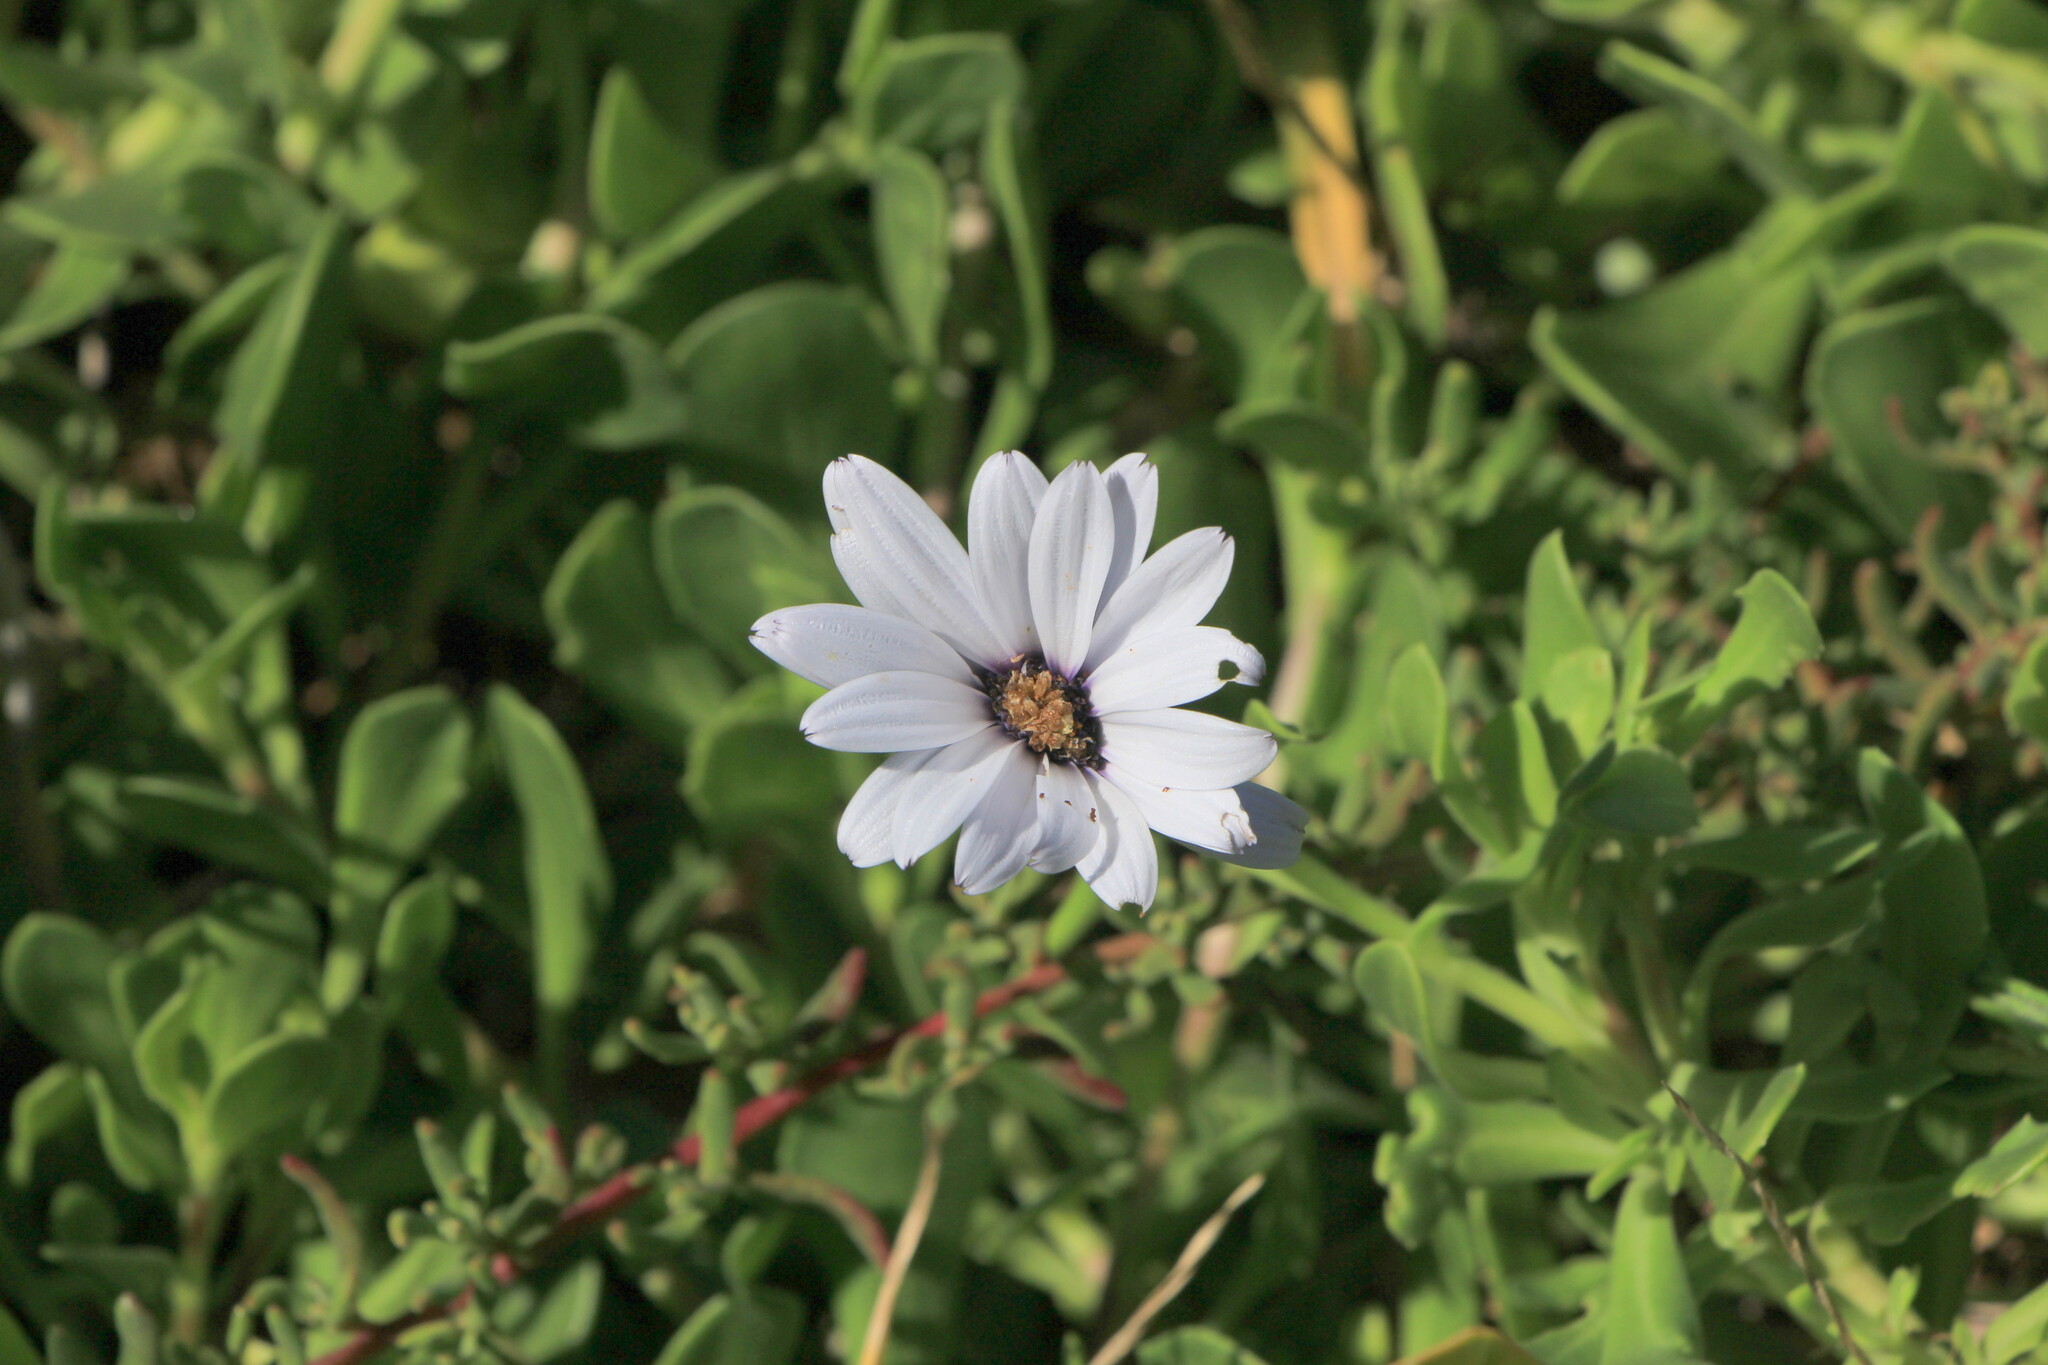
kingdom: Plantae
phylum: Tracheophyta
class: Magnoliopsida
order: Asterales
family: Asteraceae
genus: Dimorphotheca
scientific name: Dimorphotheca fruticosa
